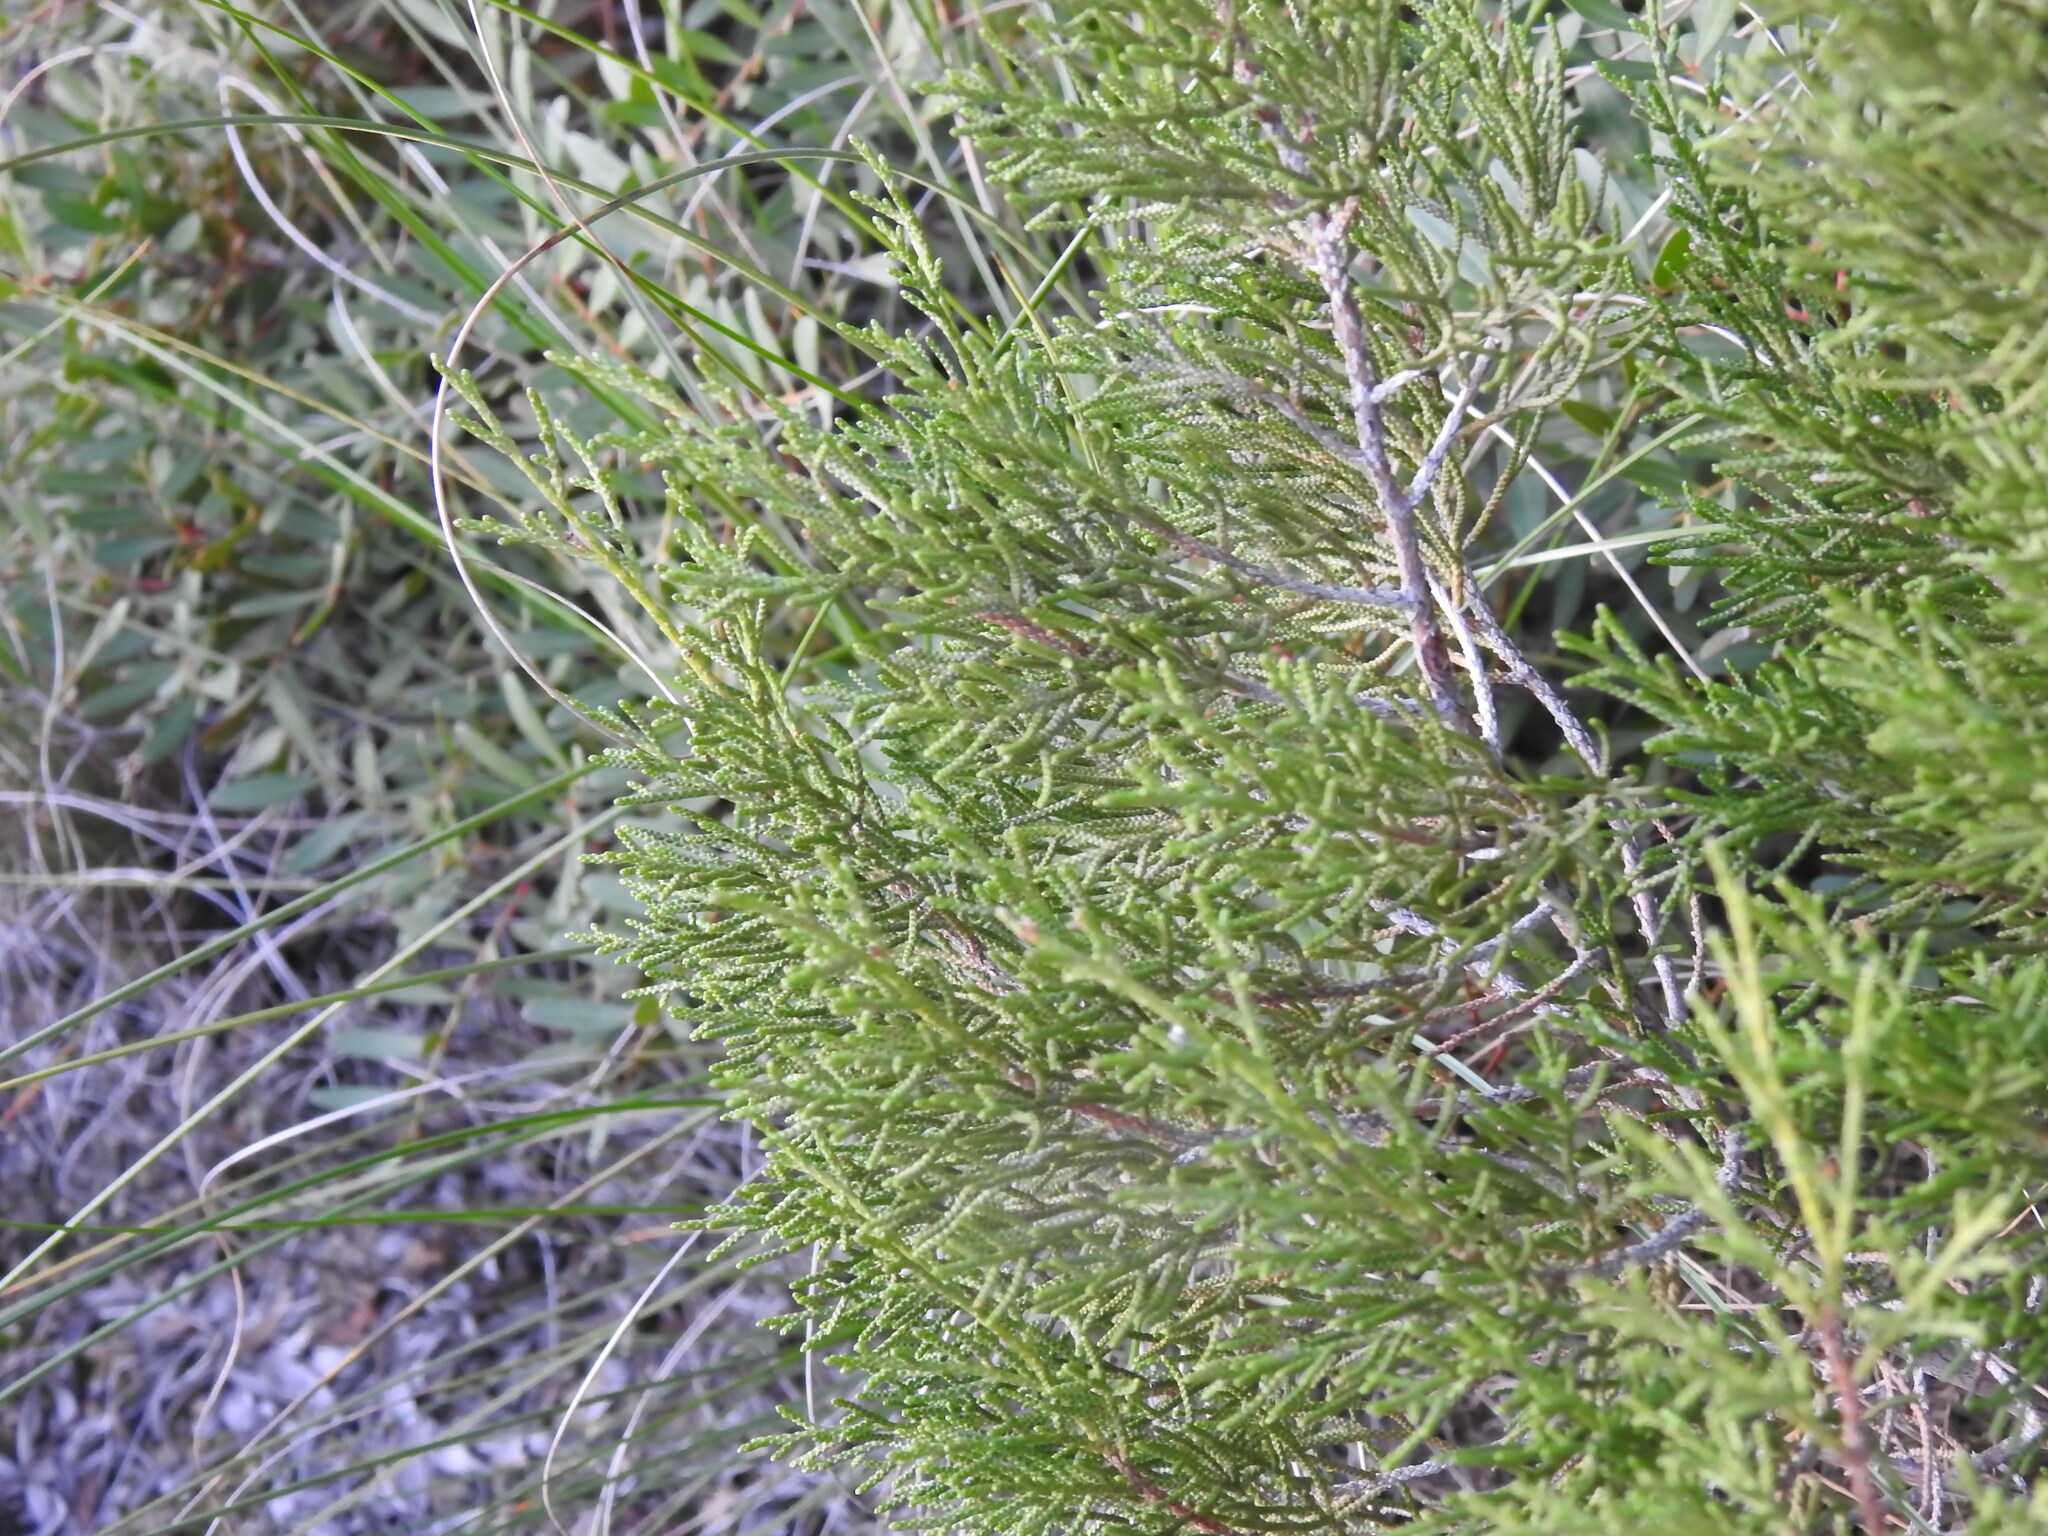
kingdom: Plantae
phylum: Tracheophyta
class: Pinopsida
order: Pinales
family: Cupressaceae
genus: Juniperus
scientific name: Juniperus phoenicea
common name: Phoenician juniper
